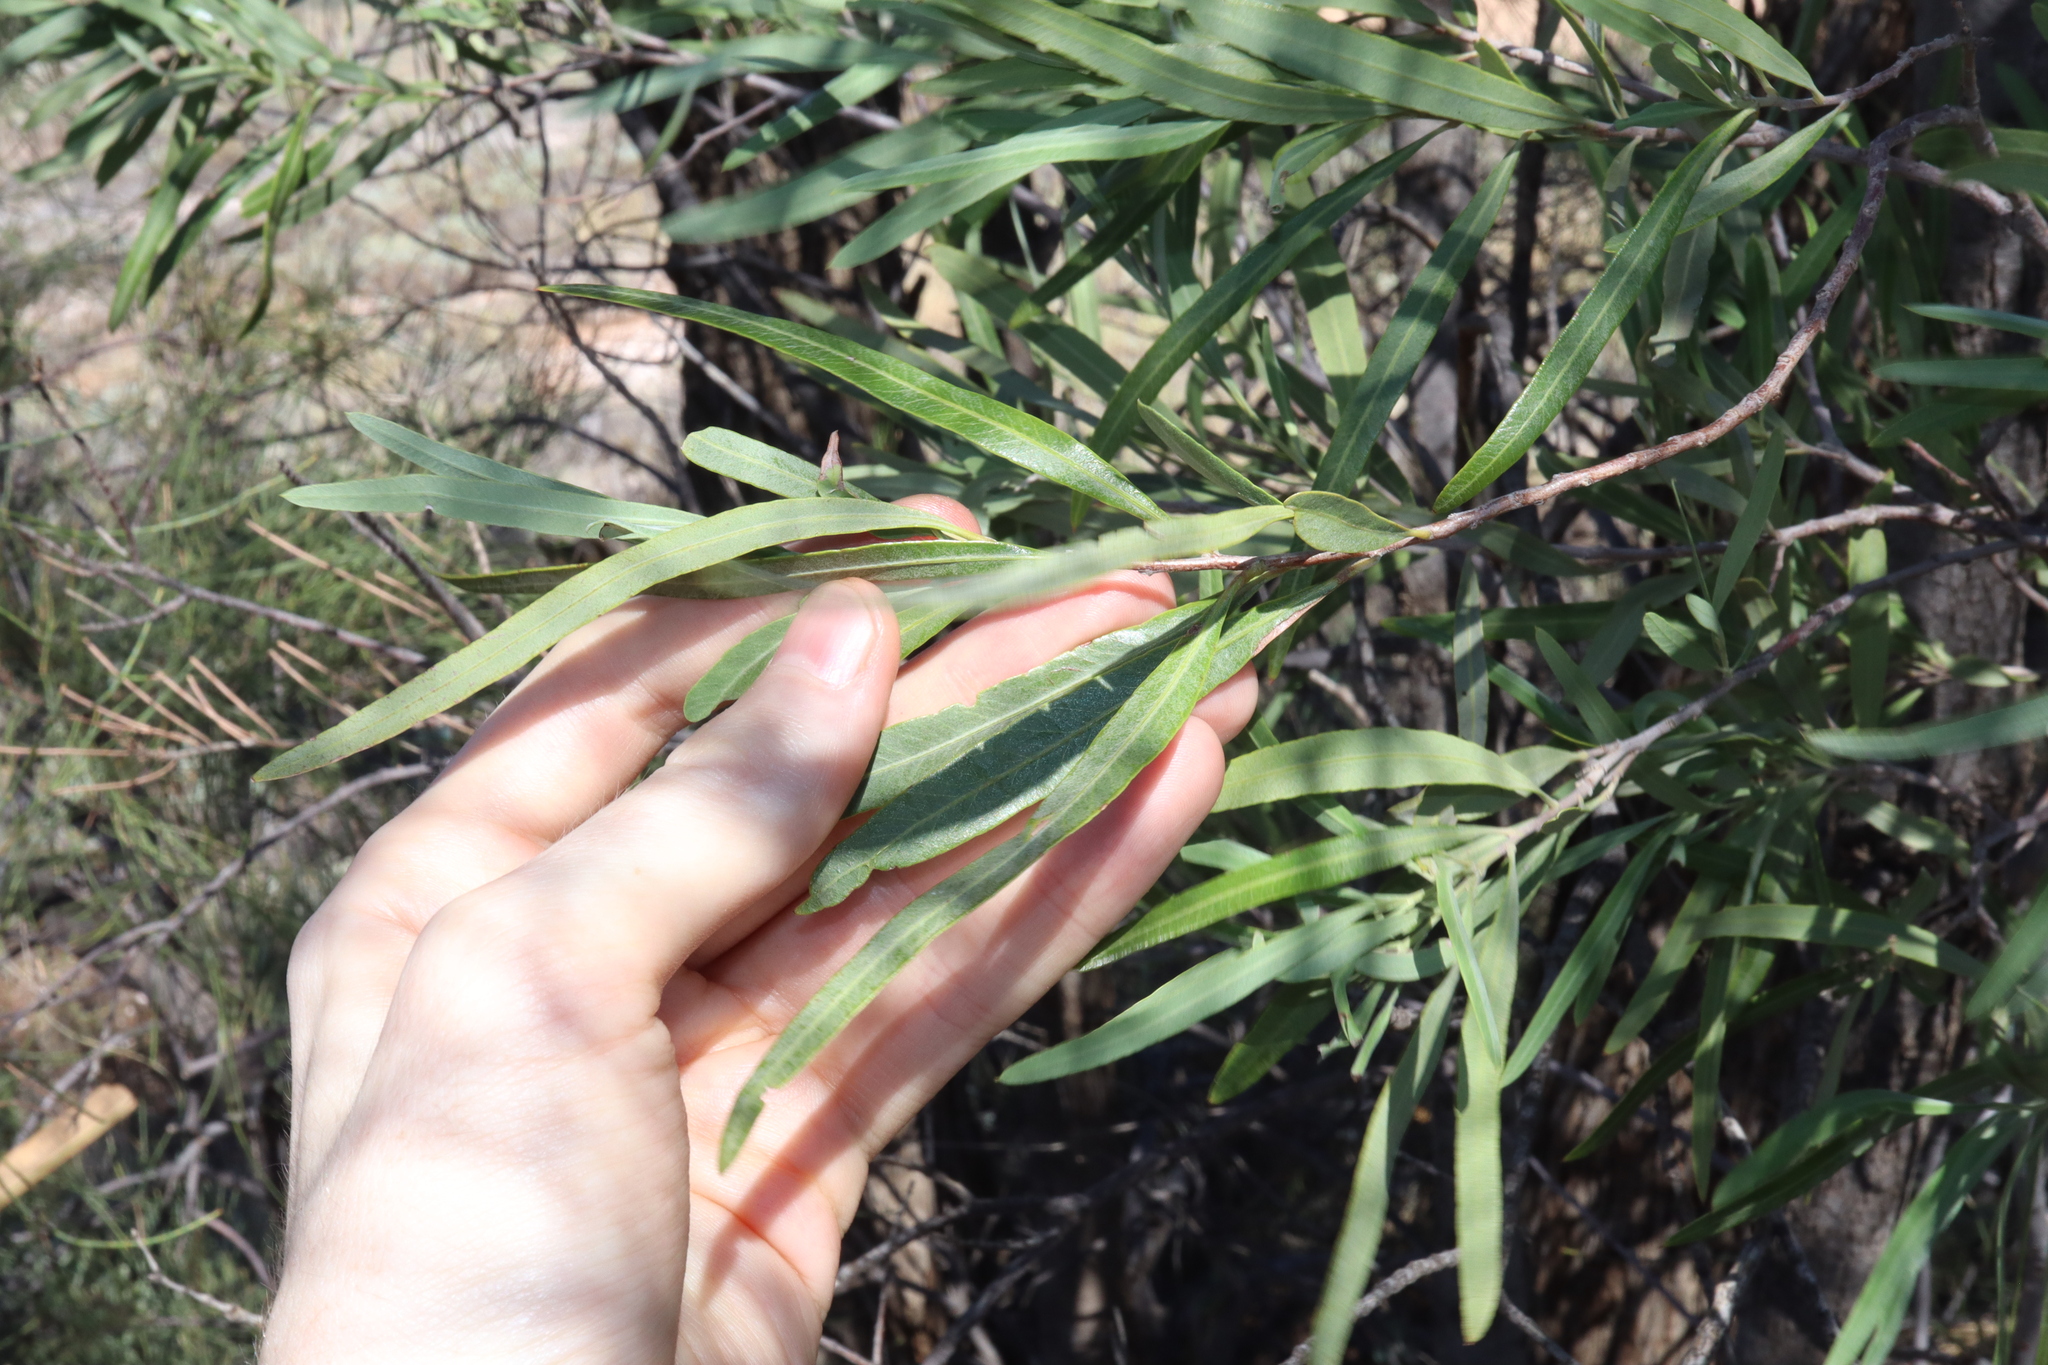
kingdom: Plantae
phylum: Tracheophyta
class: Magnoliopsida
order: Sapindales
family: Sapindaceae
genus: Alectryon
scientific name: Alectryon oleifolius
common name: Australian rosewood
